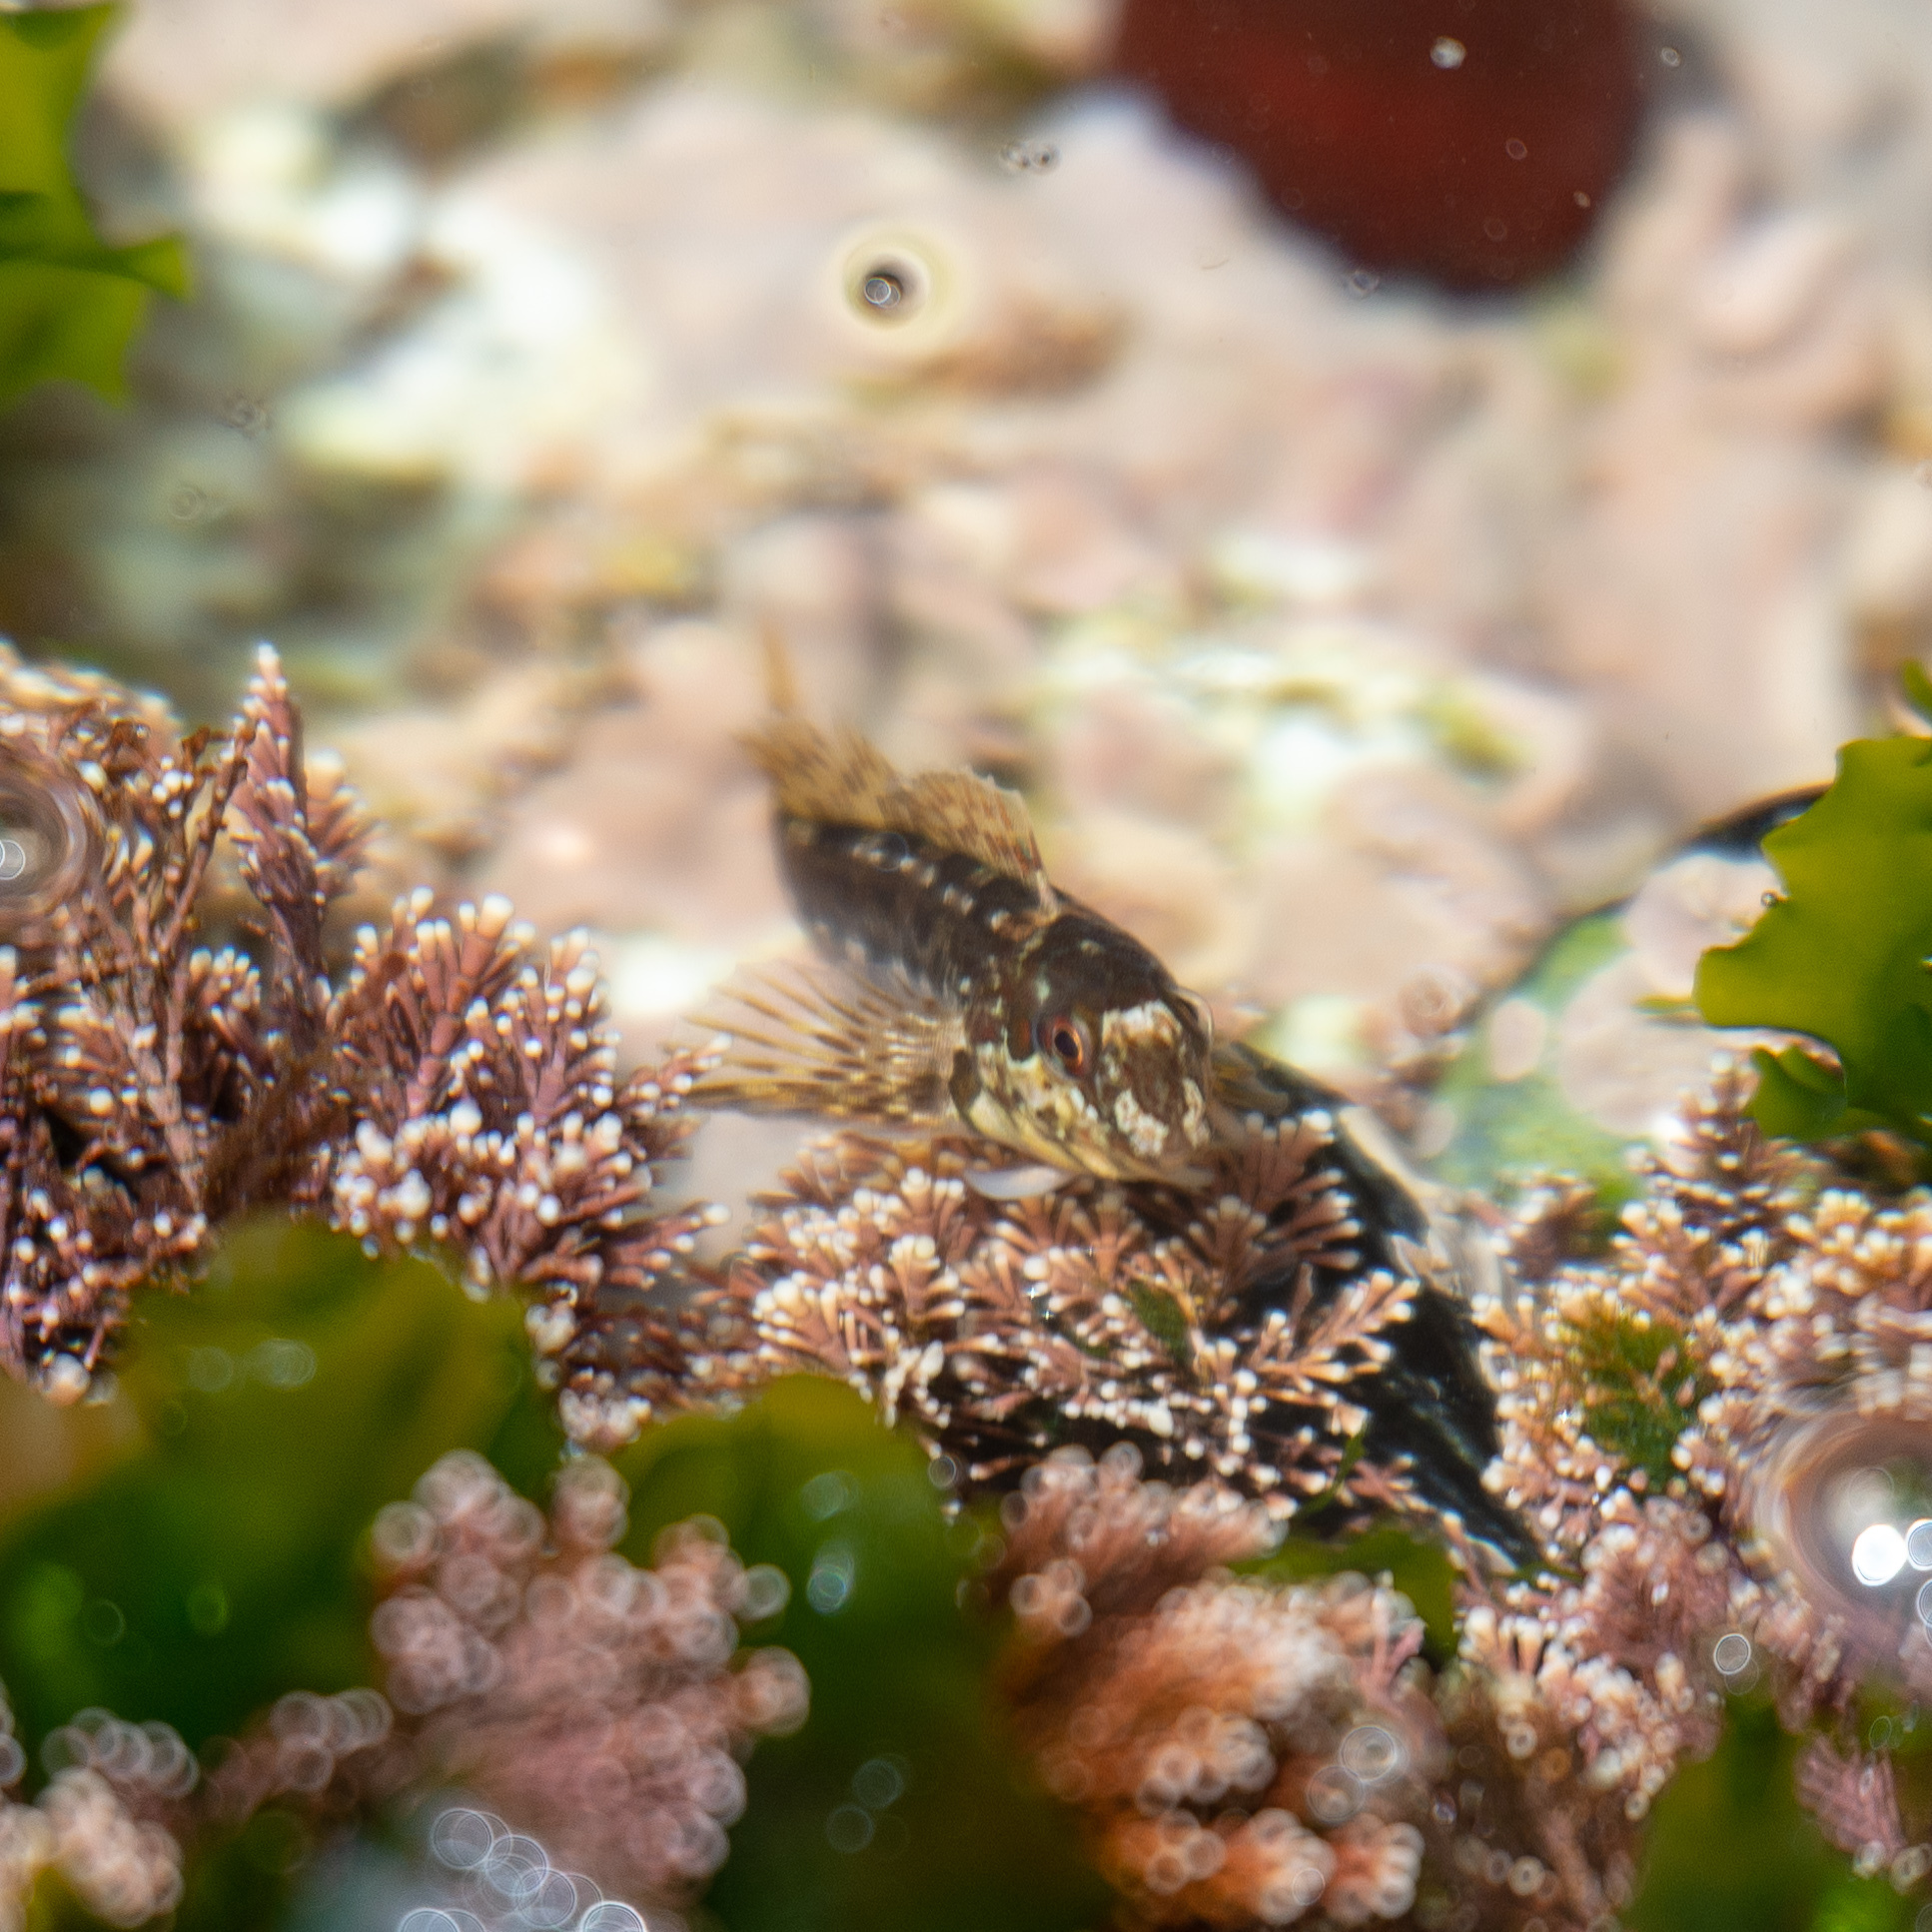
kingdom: Animalia
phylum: Chordata
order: Perciformes
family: Blenniidae
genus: Lipophrys
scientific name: Lipophrys pholis
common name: Shanny
